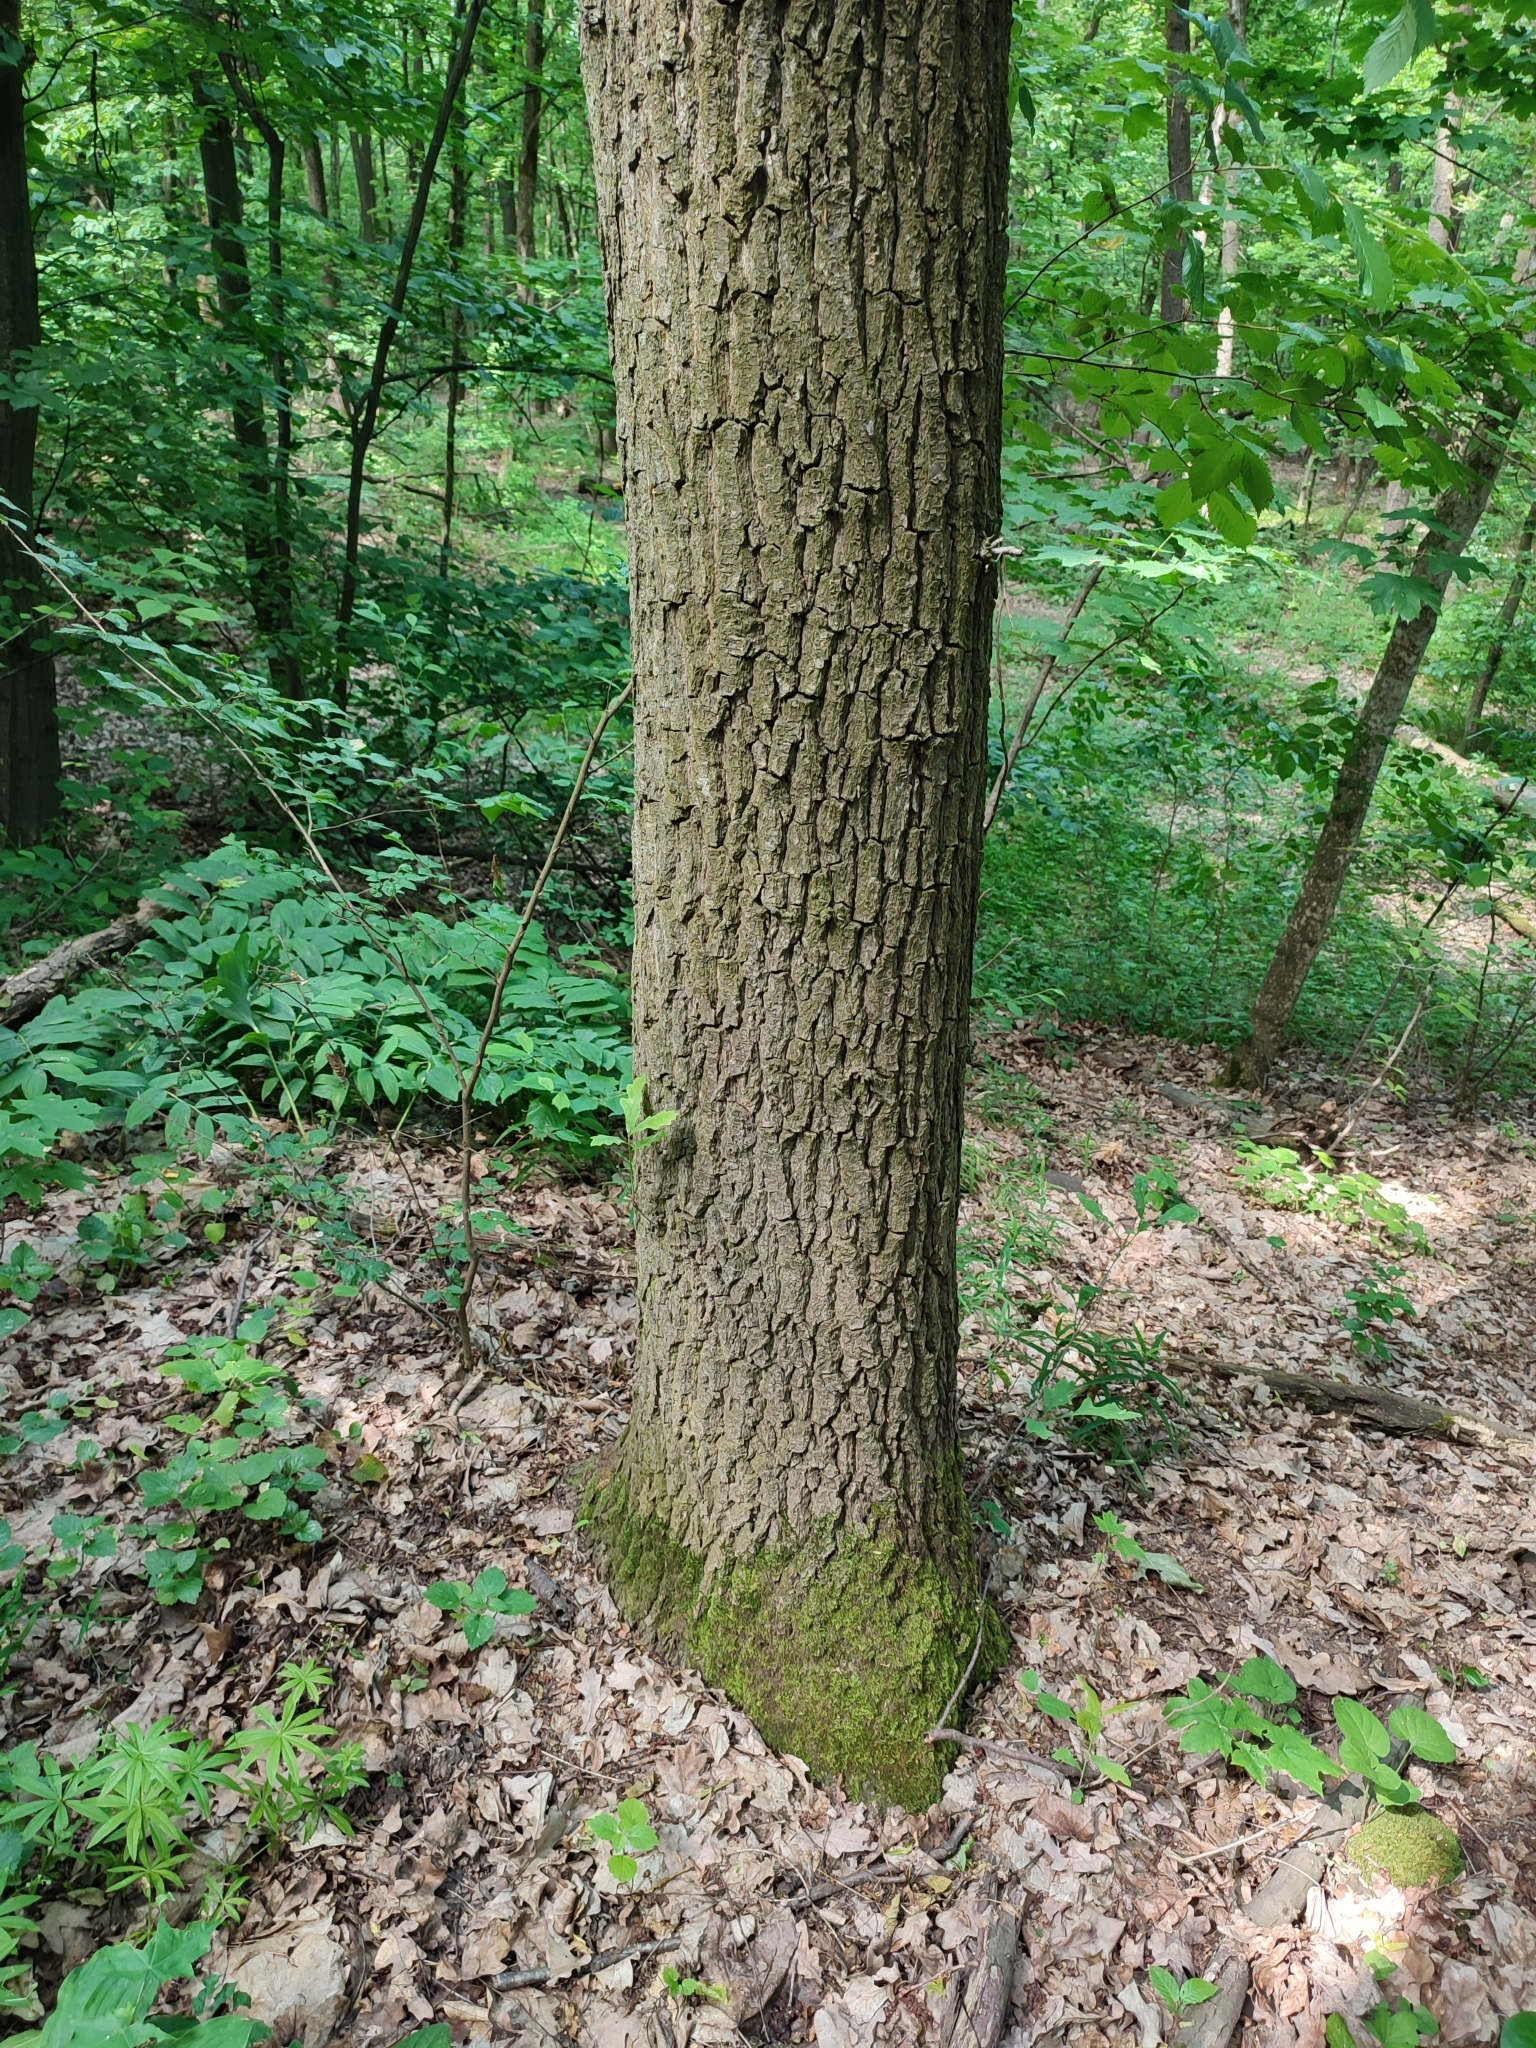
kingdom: Plantae
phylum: Tracheophyta
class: Magnoliopsida
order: Fagales
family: Fagaceae
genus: Quercus
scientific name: Quercus robur
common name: Pedunculate oak
